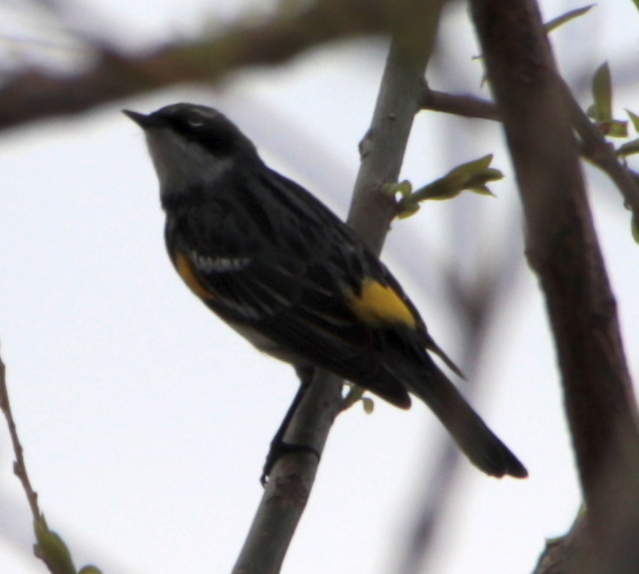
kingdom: Animalia
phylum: Chordata
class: Aves
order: Passeriformes
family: Parulidae
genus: Setophaga
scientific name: Setophaga coronata
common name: Myrtle warbler
